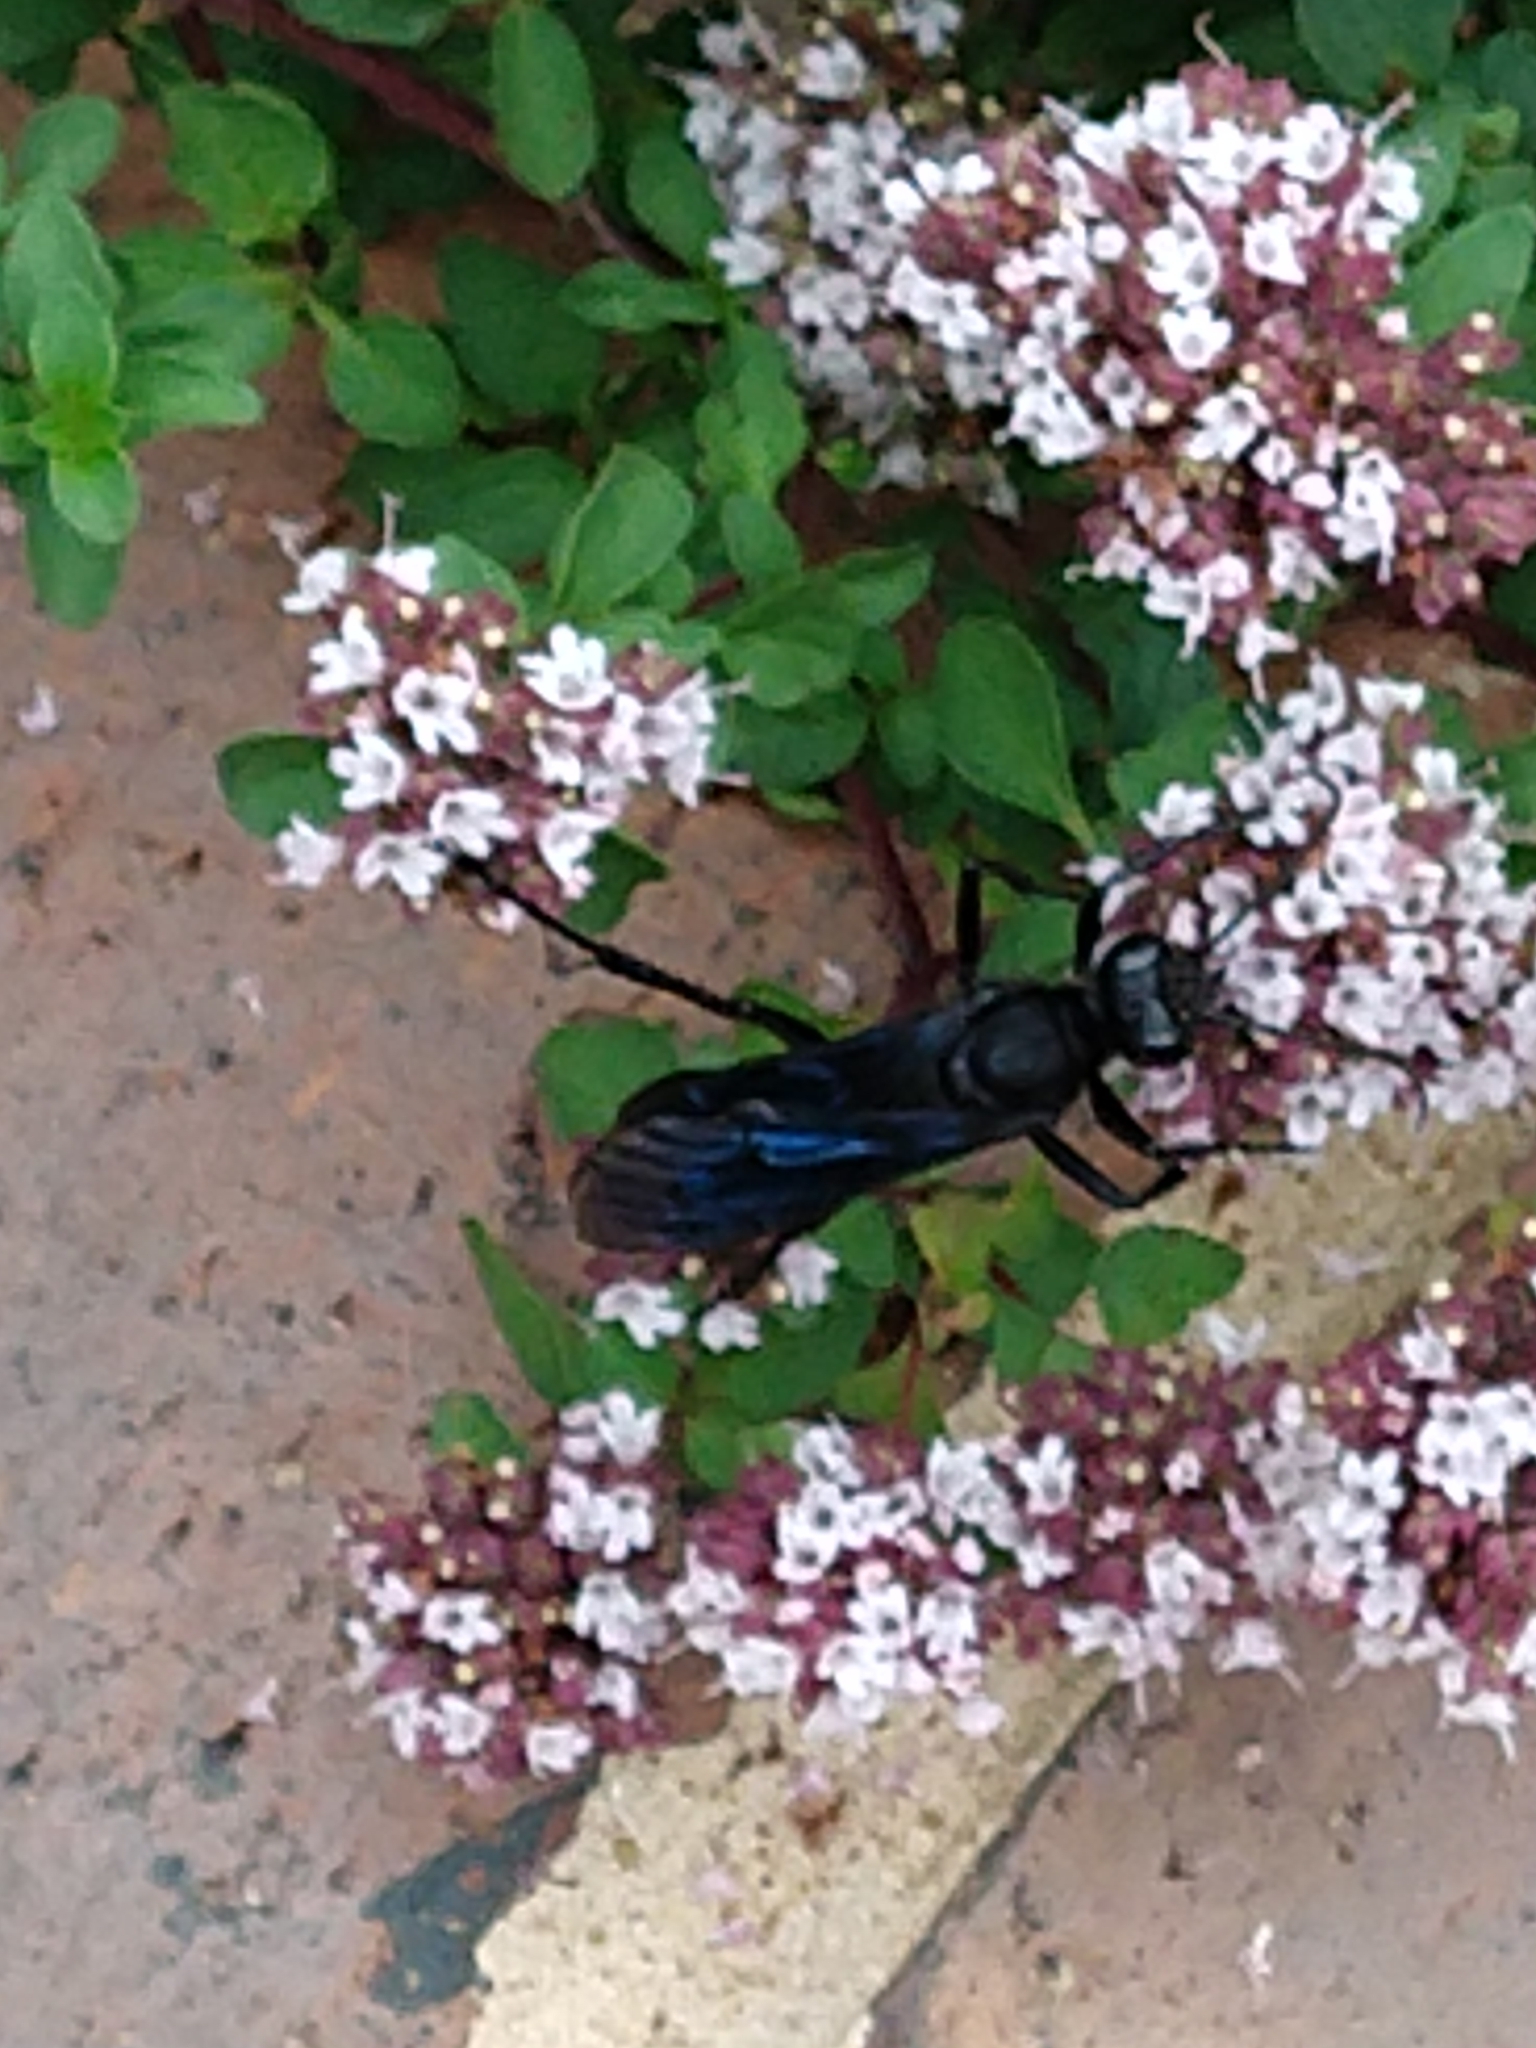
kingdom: Animalia
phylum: Arthropoda
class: Insecta
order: Hymenoptera
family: Sphecidae
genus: Sphex
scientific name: Sphex pensylvanicus
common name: Great black digger wasp
